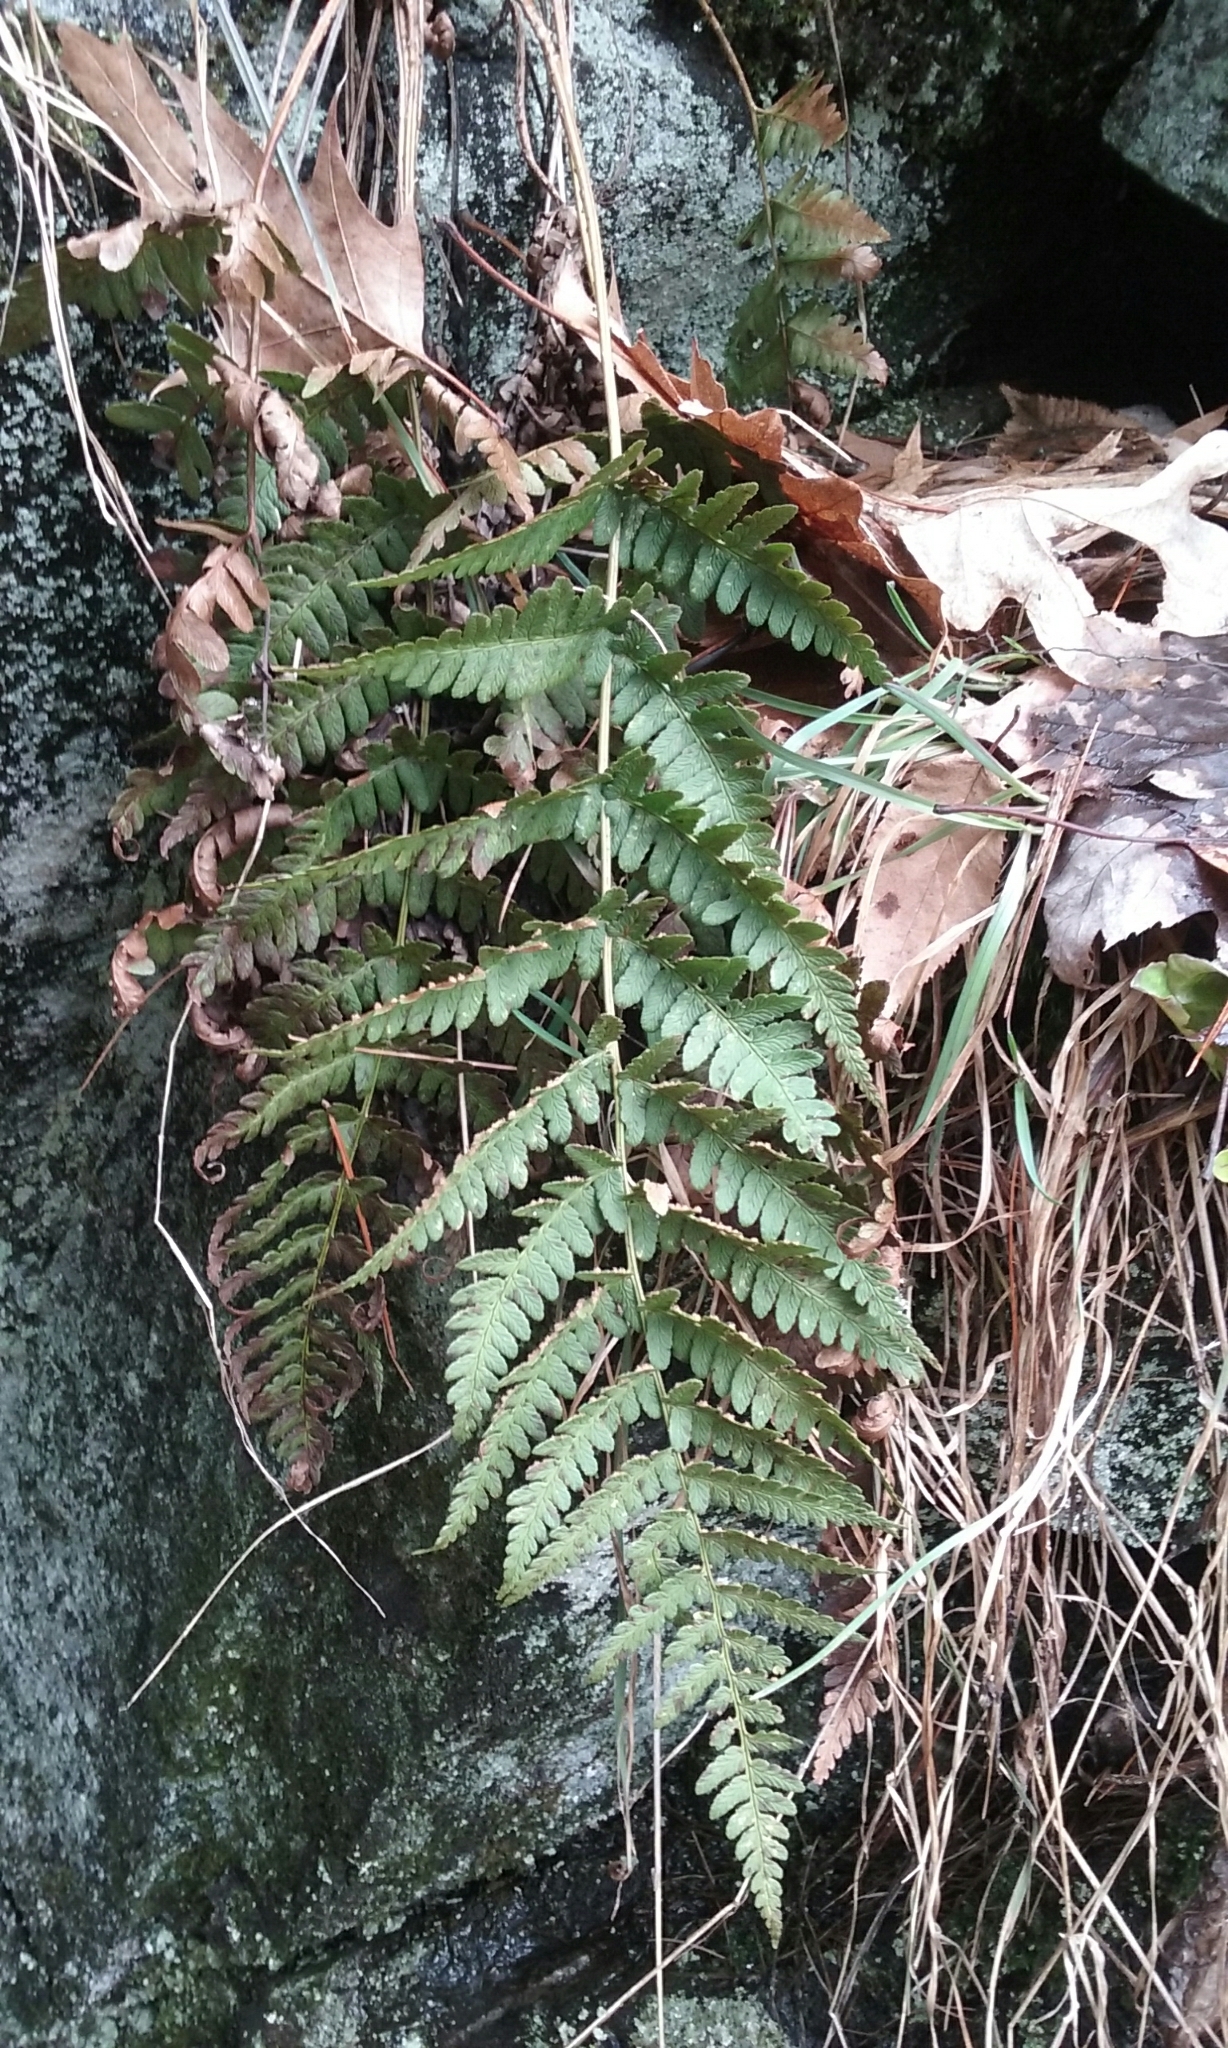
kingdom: Plantae
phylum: Tracheophyta
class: Polypodiopsida
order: Polypodiales
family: Dryopteridaceae
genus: Dryopteris
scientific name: Dryopteris marginalis
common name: Marginal wood fern
